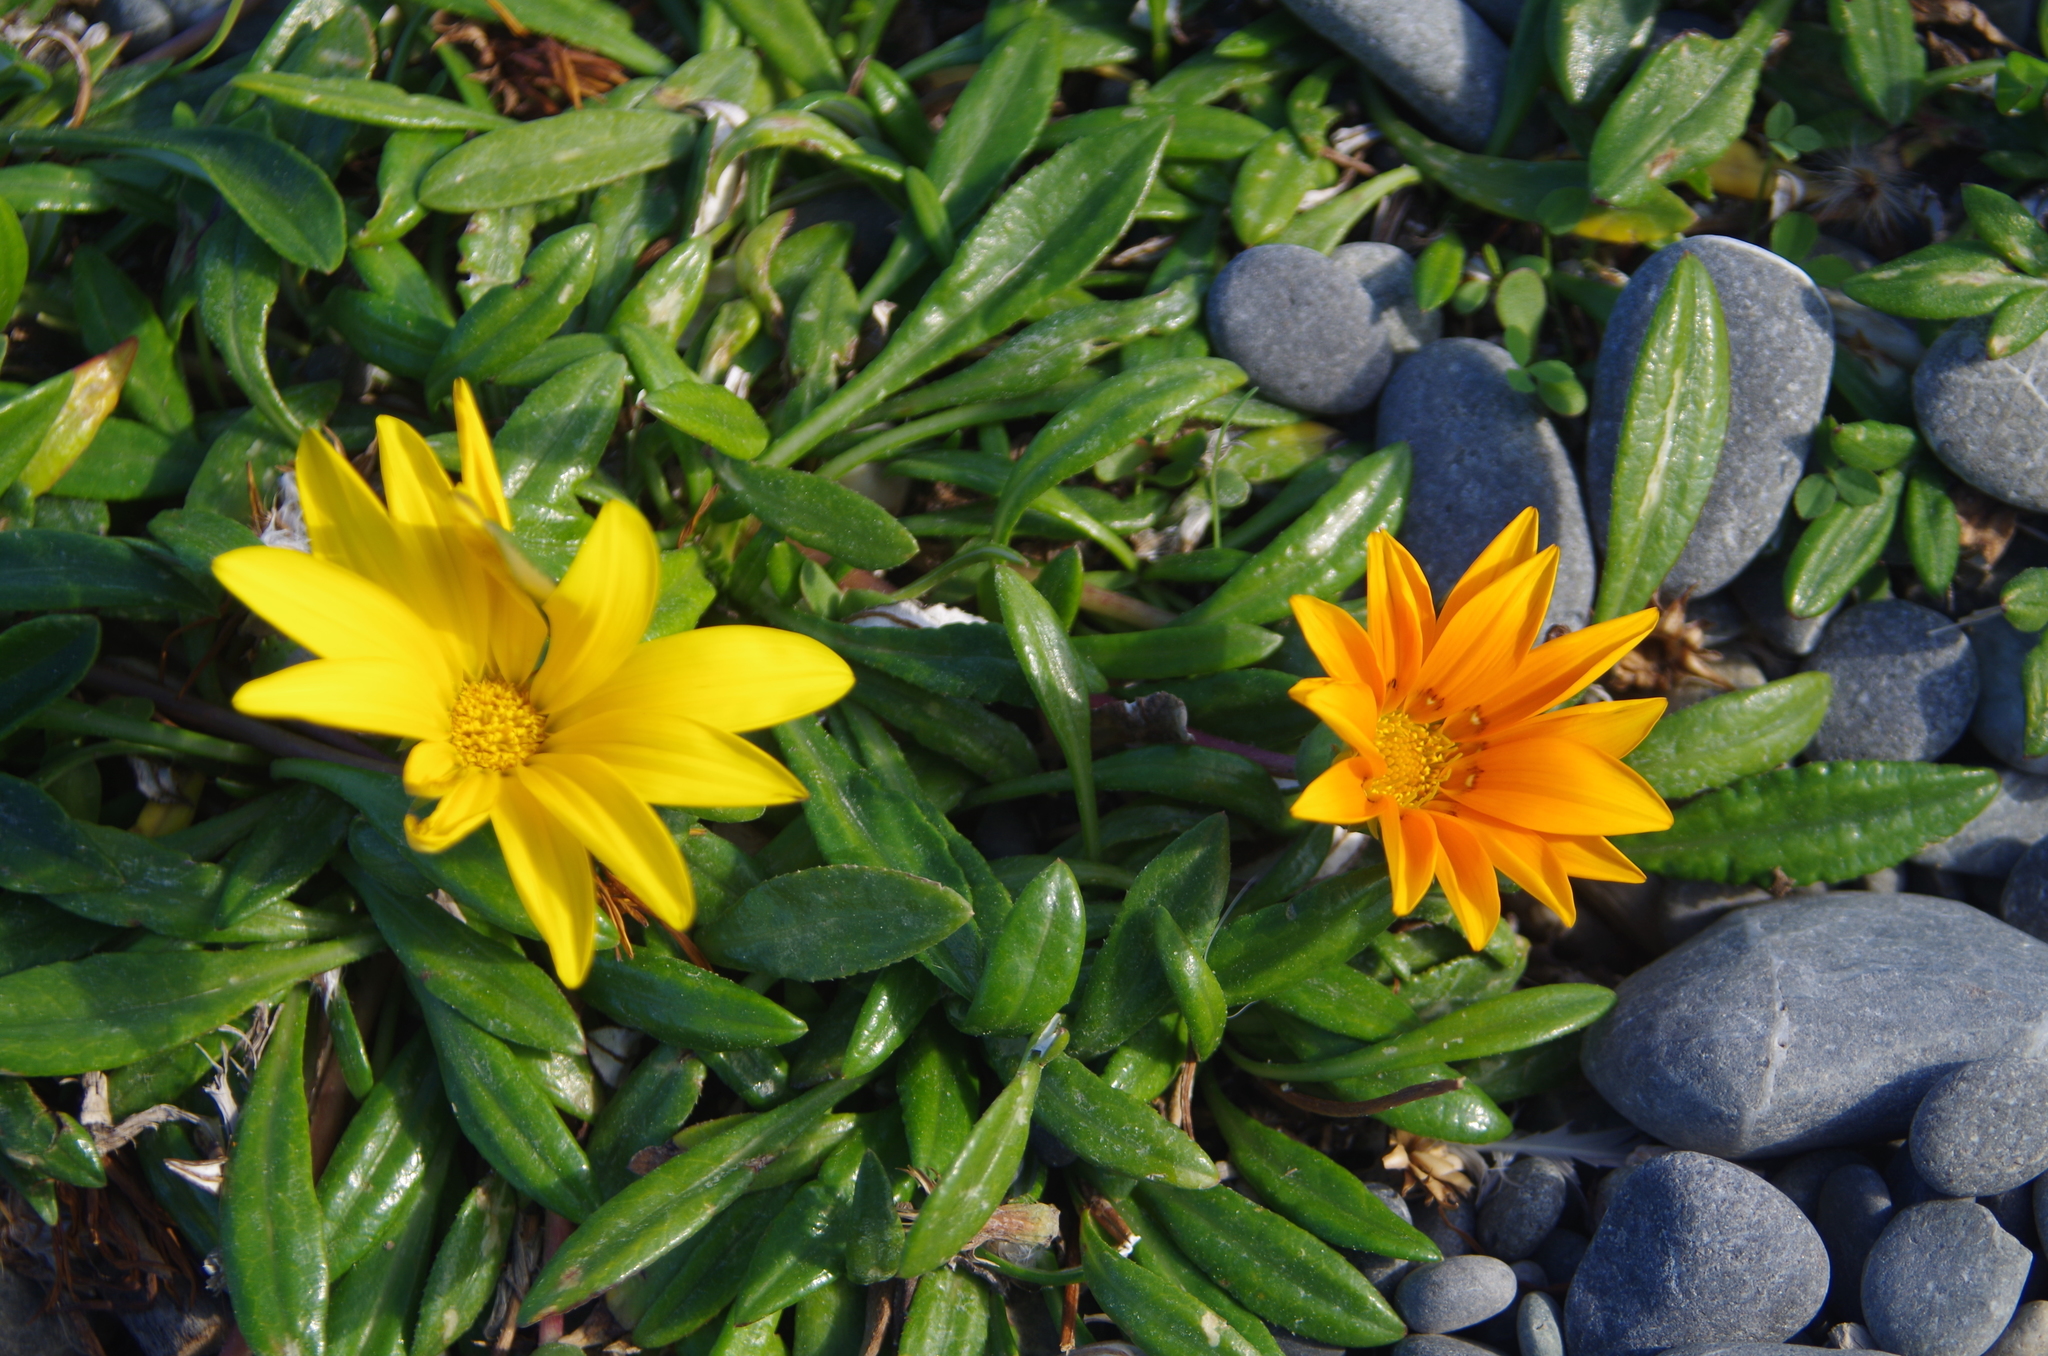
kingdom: Plantae
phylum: Tracheophyta
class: Magnoliopsida
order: Asterales
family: Asteraceae
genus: Gazania
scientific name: Gazania
